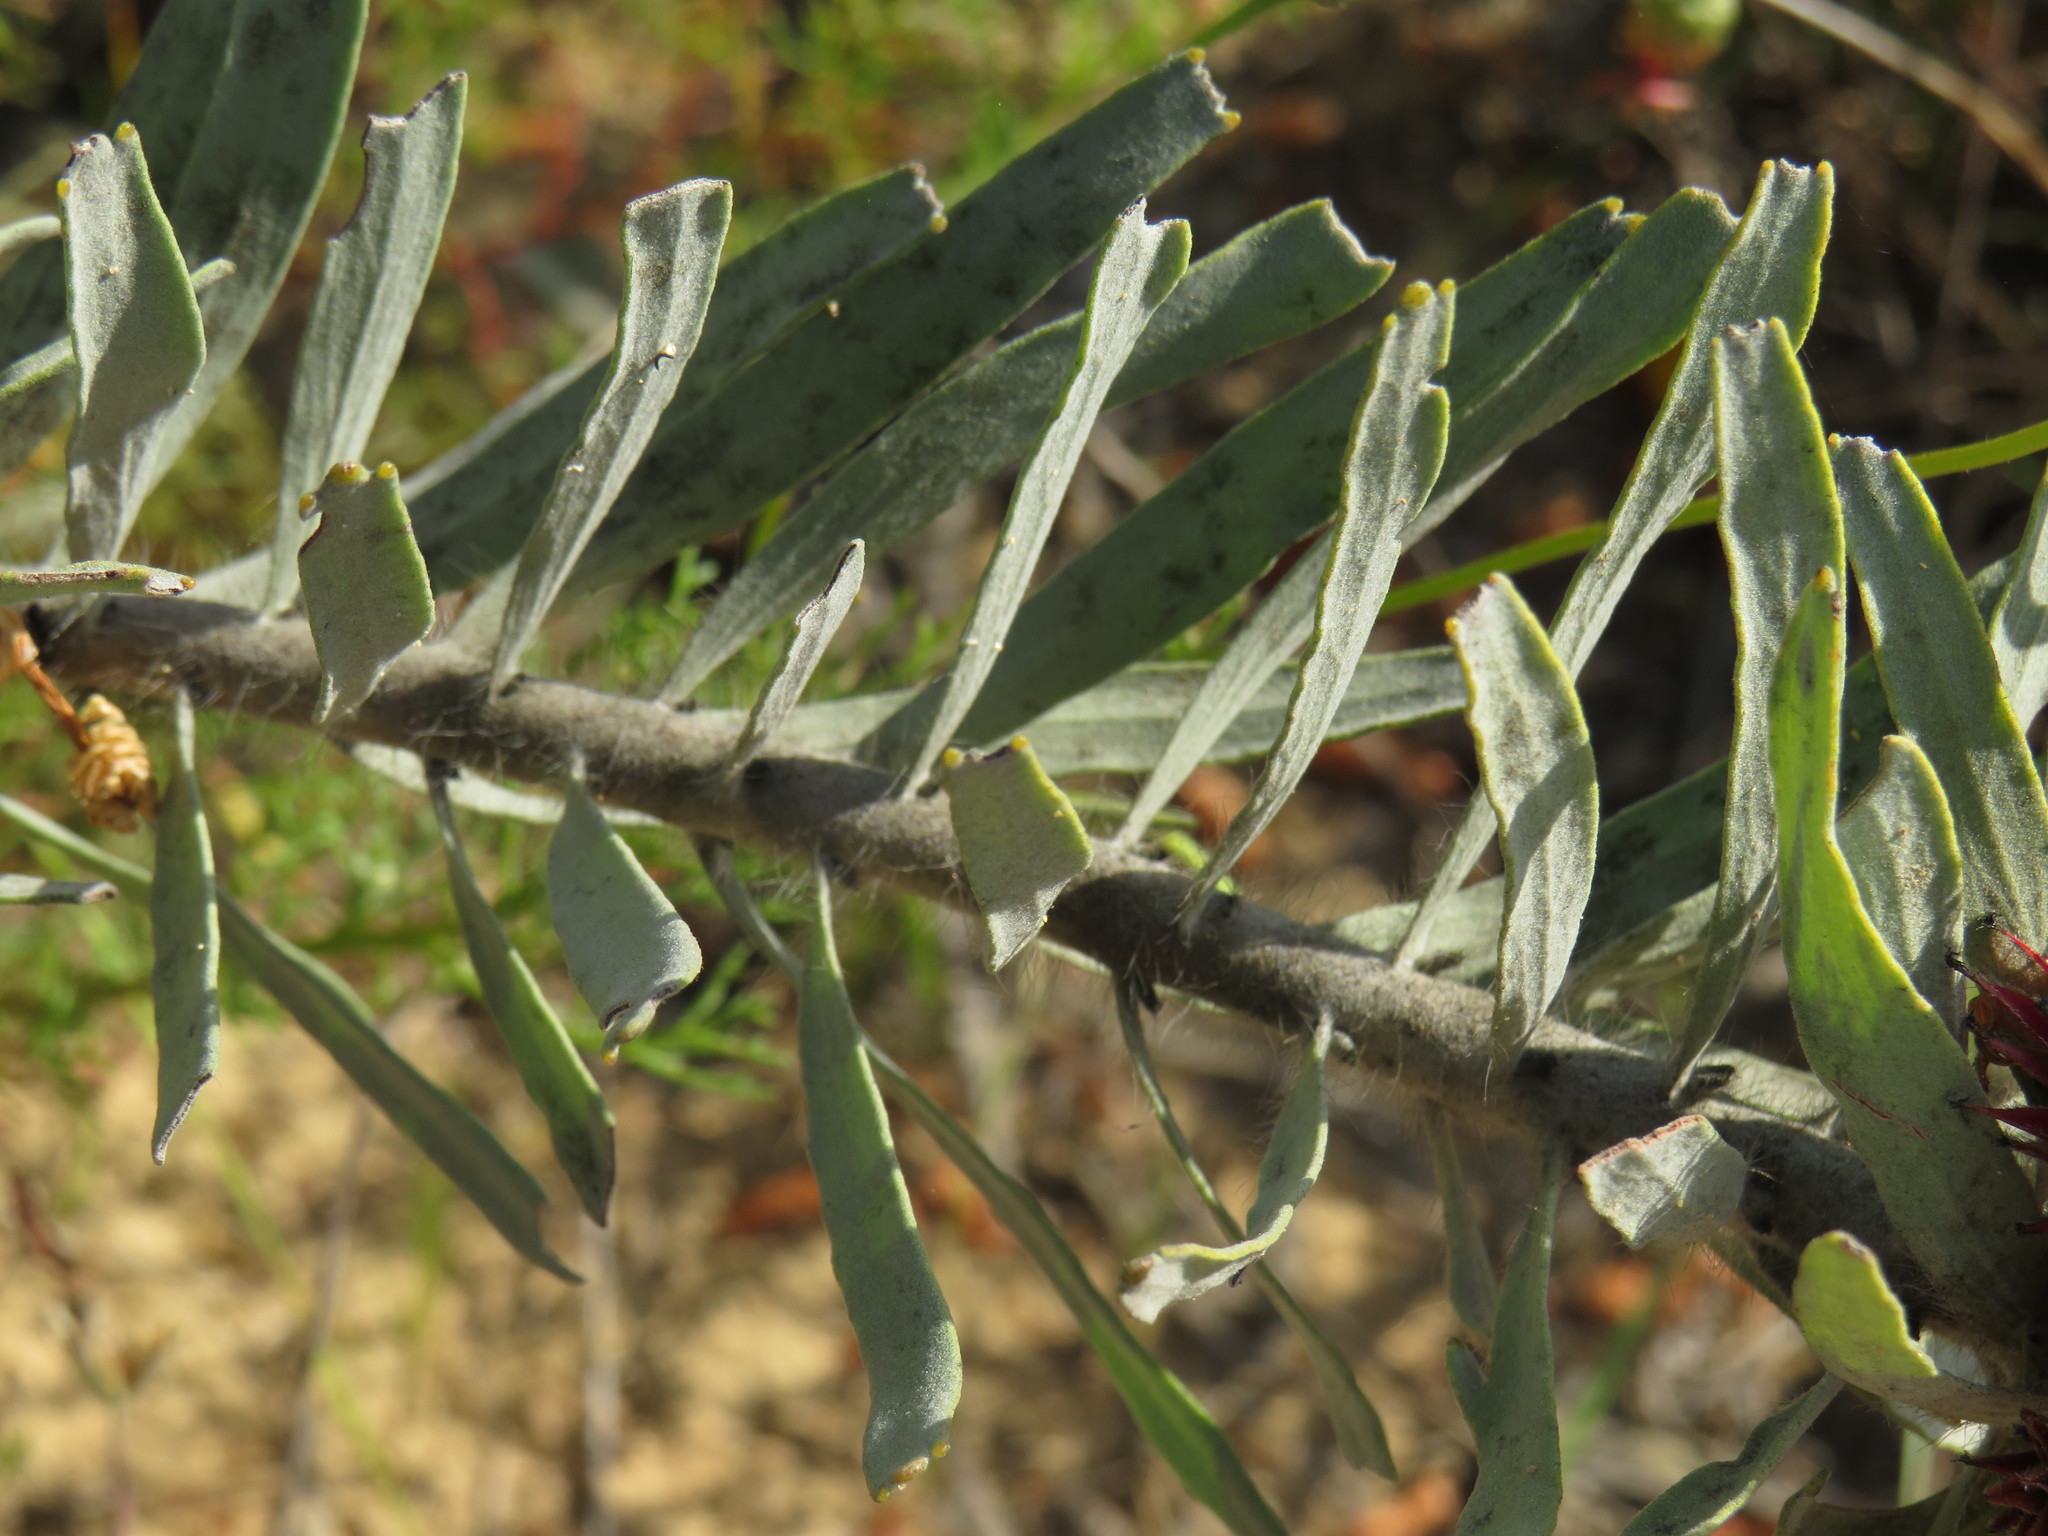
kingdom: Plantae
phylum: Tracheophyta
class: Magnoliopsida
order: Proteales
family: Proteaceae
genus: Leucospermum
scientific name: Leucospermum parile
